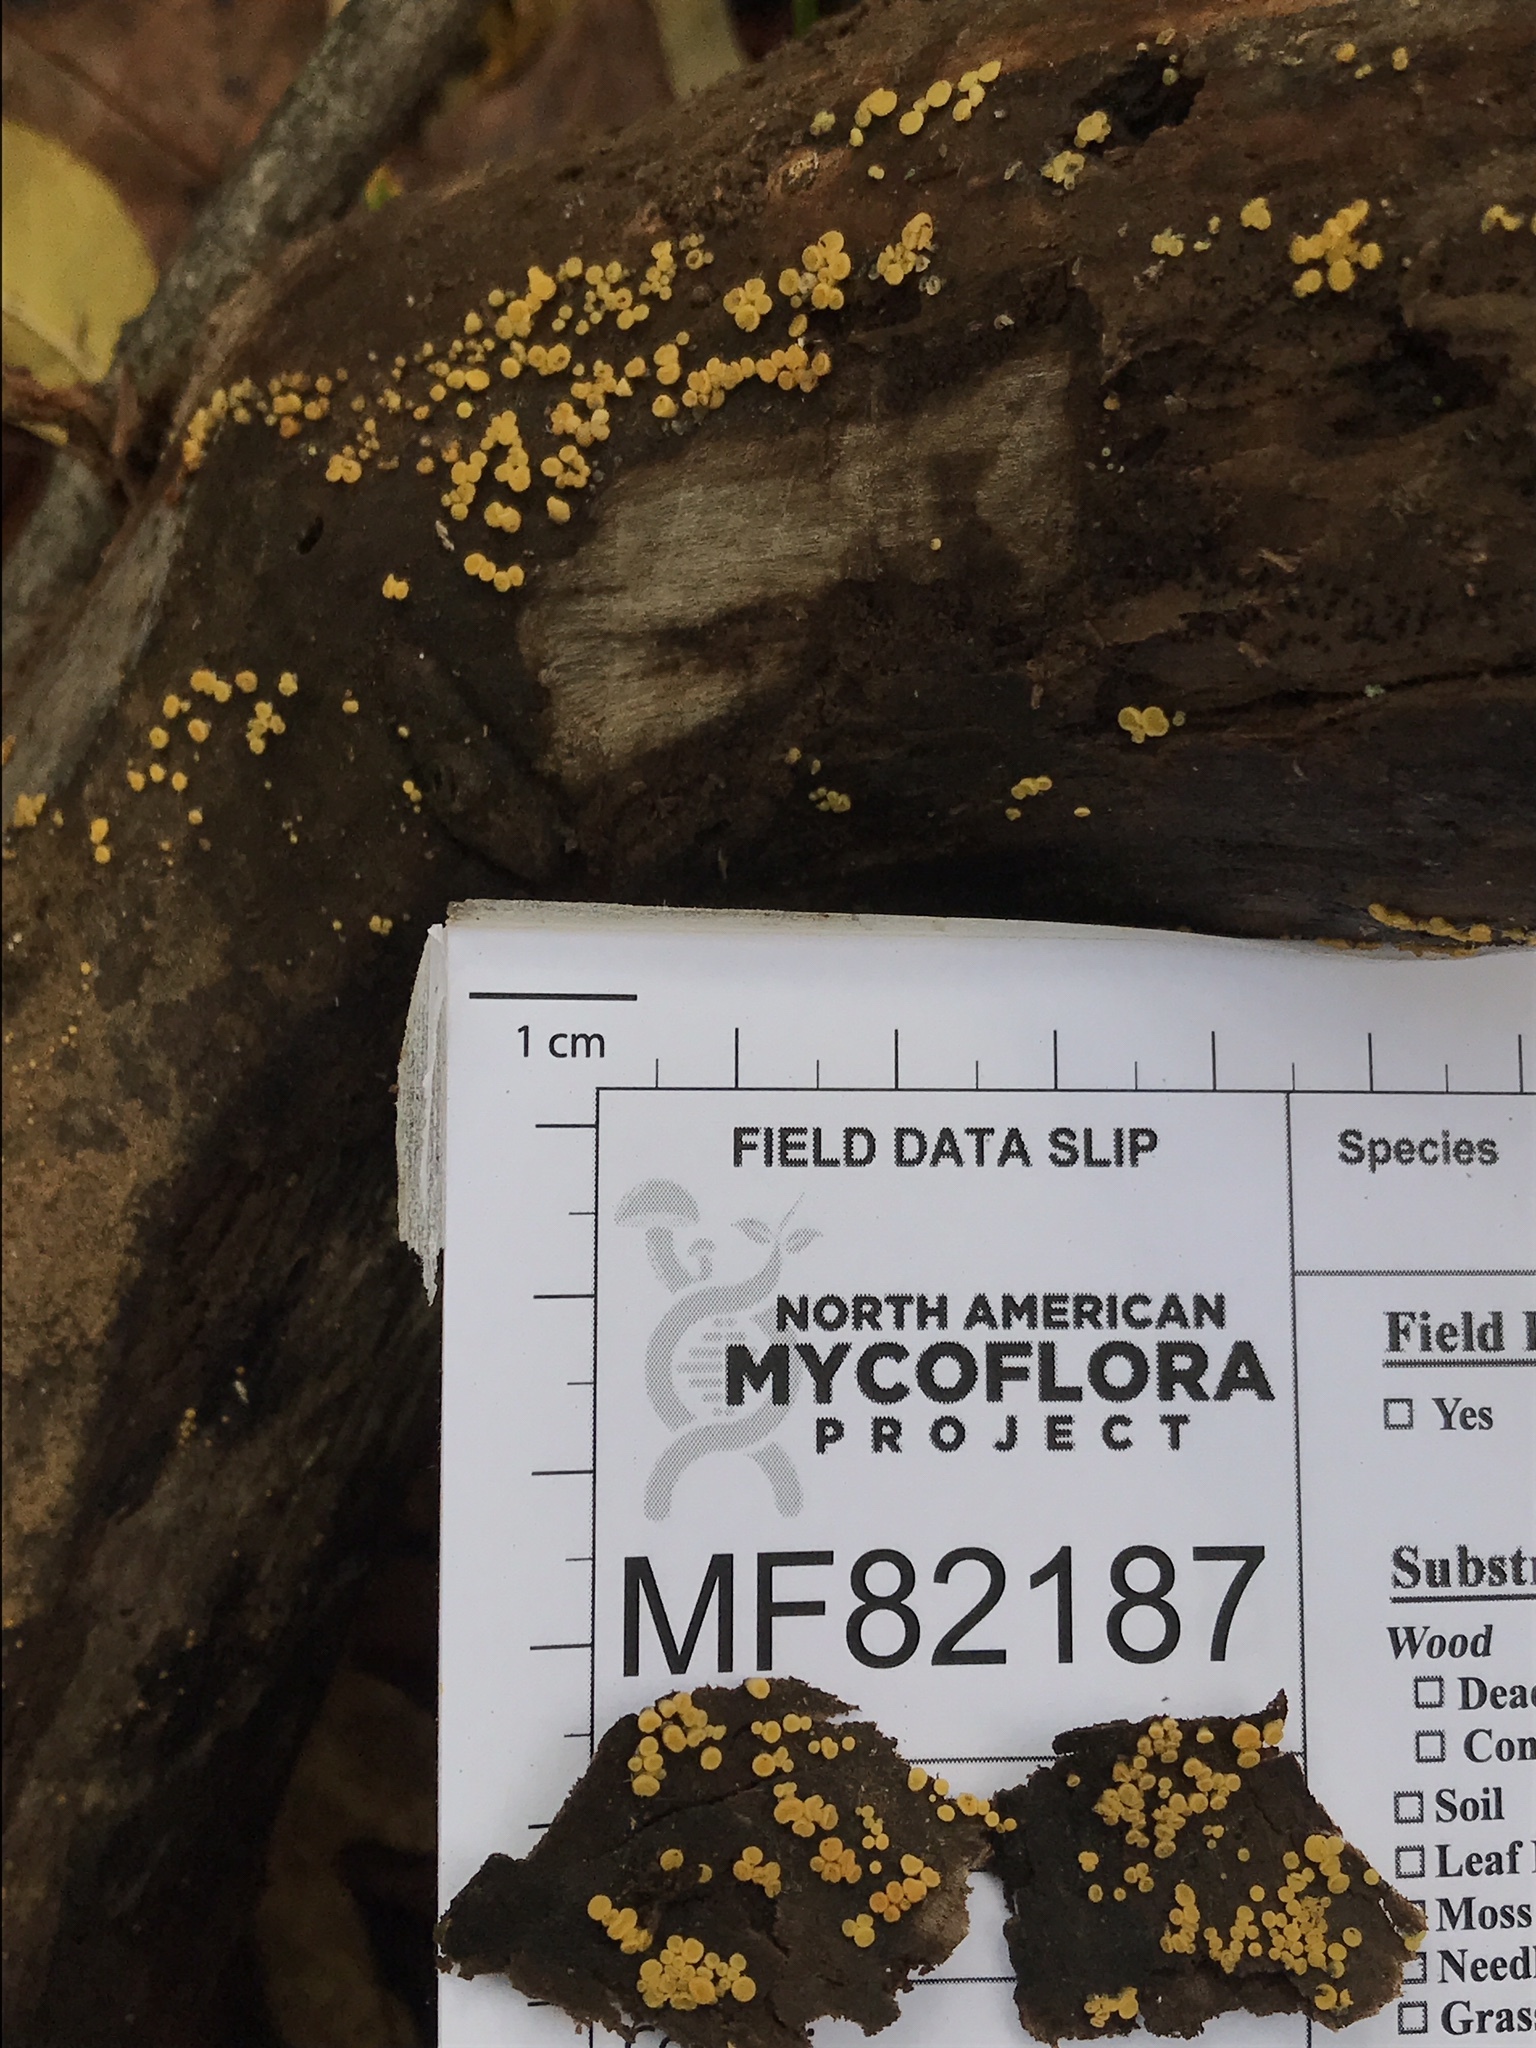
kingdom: Fungi
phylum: Ascomycota
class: Leotiomycetes
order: Helotiales
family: Pezizellaceae
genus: Calycina
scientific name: Calycina citrina
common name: Yellow fairy cups
